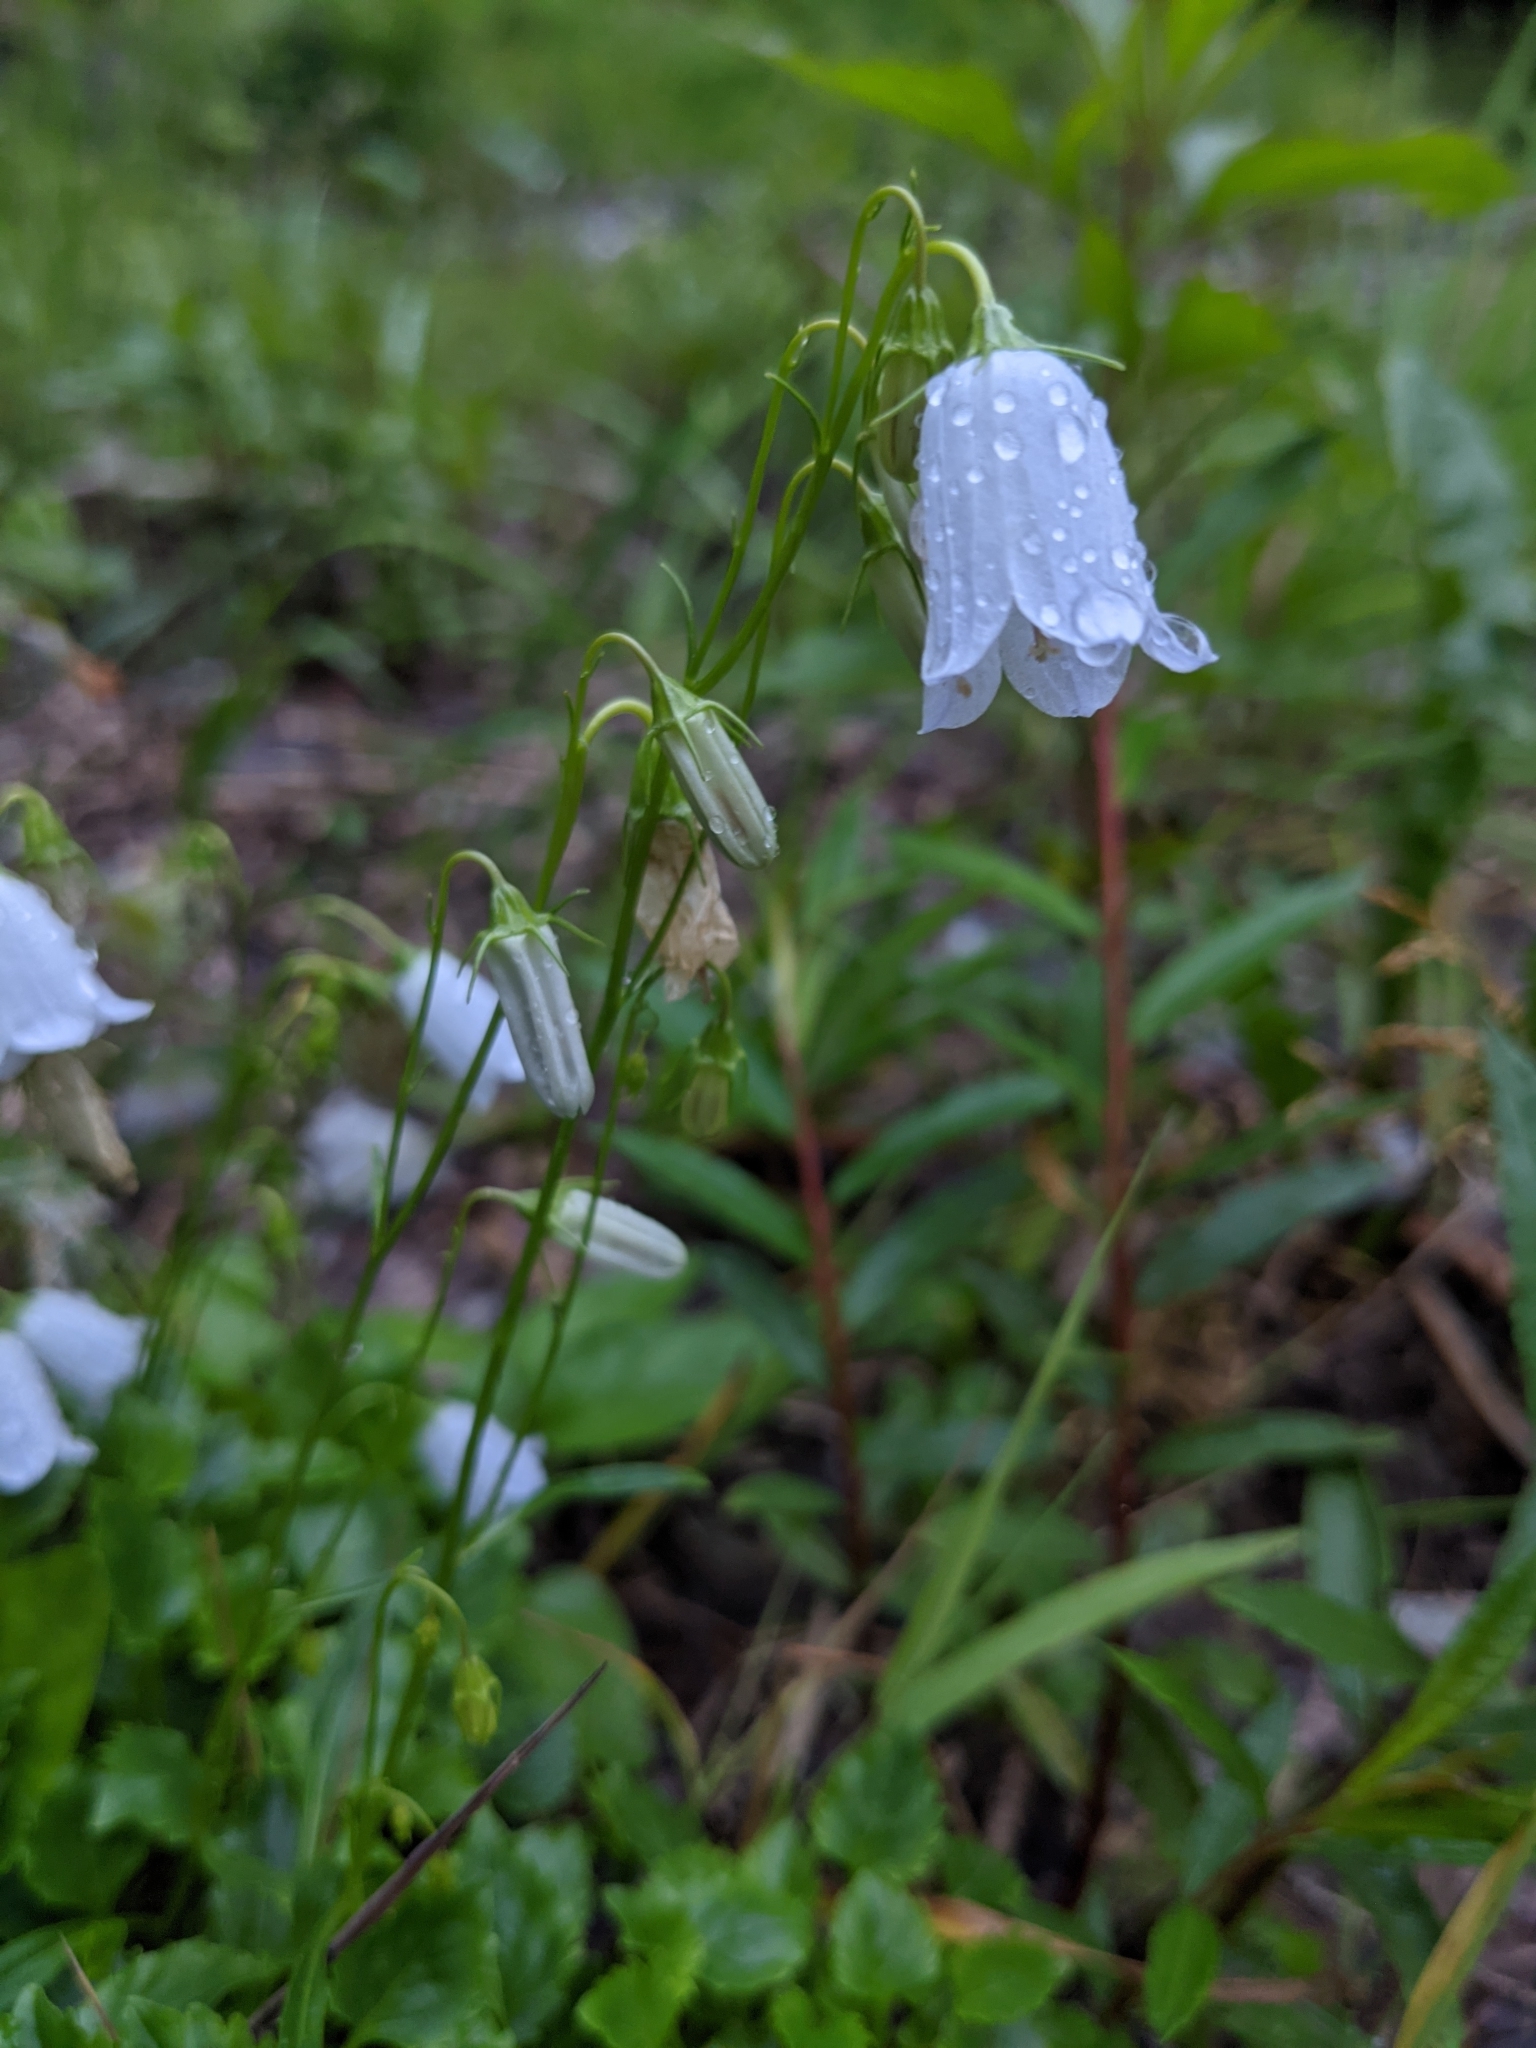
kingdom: Plantae
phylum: Tracheophyta
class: Magnoliopsida
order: Asterales
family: Campanulaceae
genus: Campanula
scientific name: Campanula cochleariifolia
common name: Fairies'-thimbles
